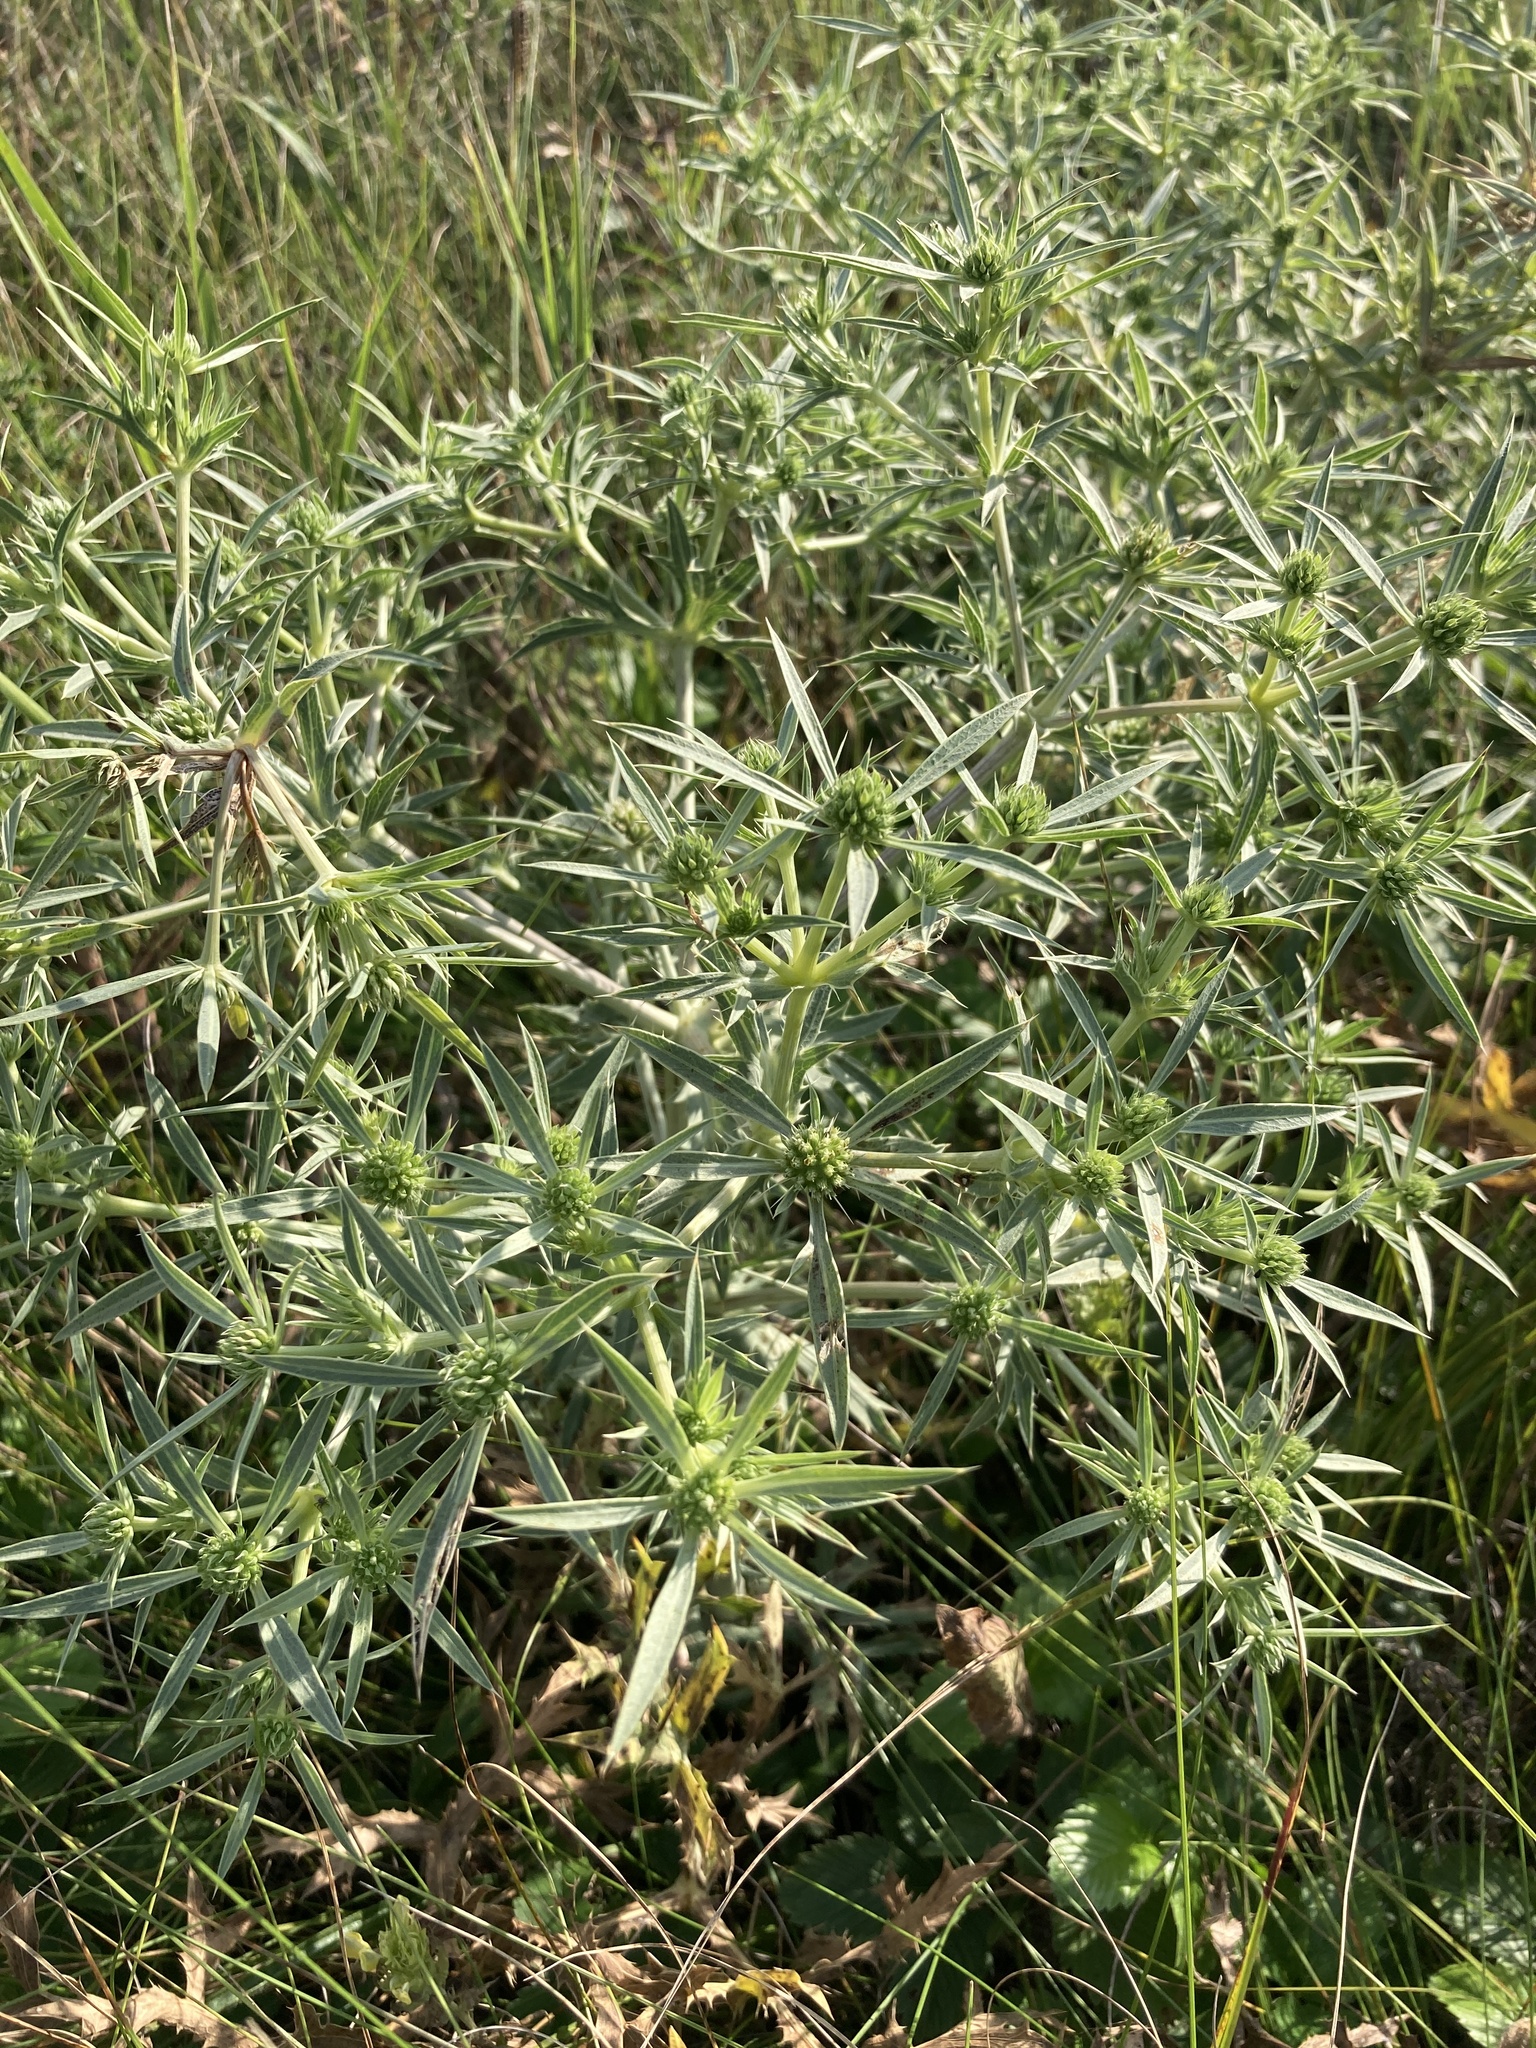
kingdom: Plantae
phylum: Tracheophyta
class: Magnoliopsida
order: Apiales
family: Apiaceae
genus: Eryngium
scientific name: Eryngium campestre
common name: Field eryngo
